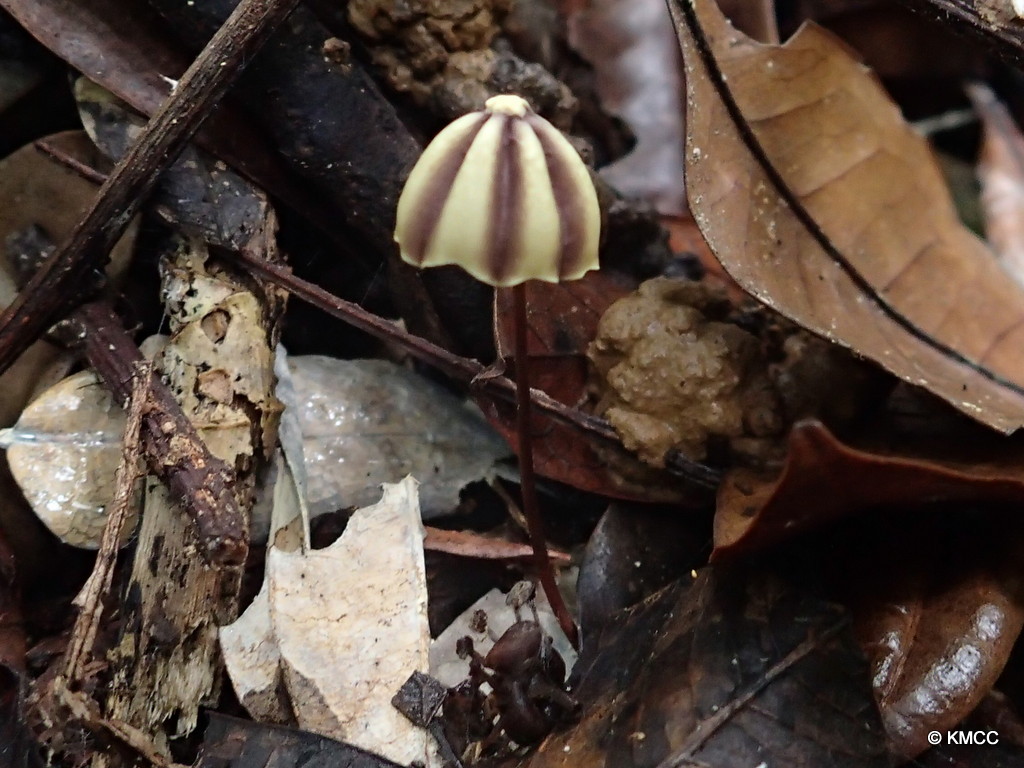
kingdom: Fungi
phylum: Basidiomycota
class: Agaricomycetes
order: Agaricales
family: Marasmiaceae
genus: Marasmius
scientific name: Marasmius bekolacongoli
